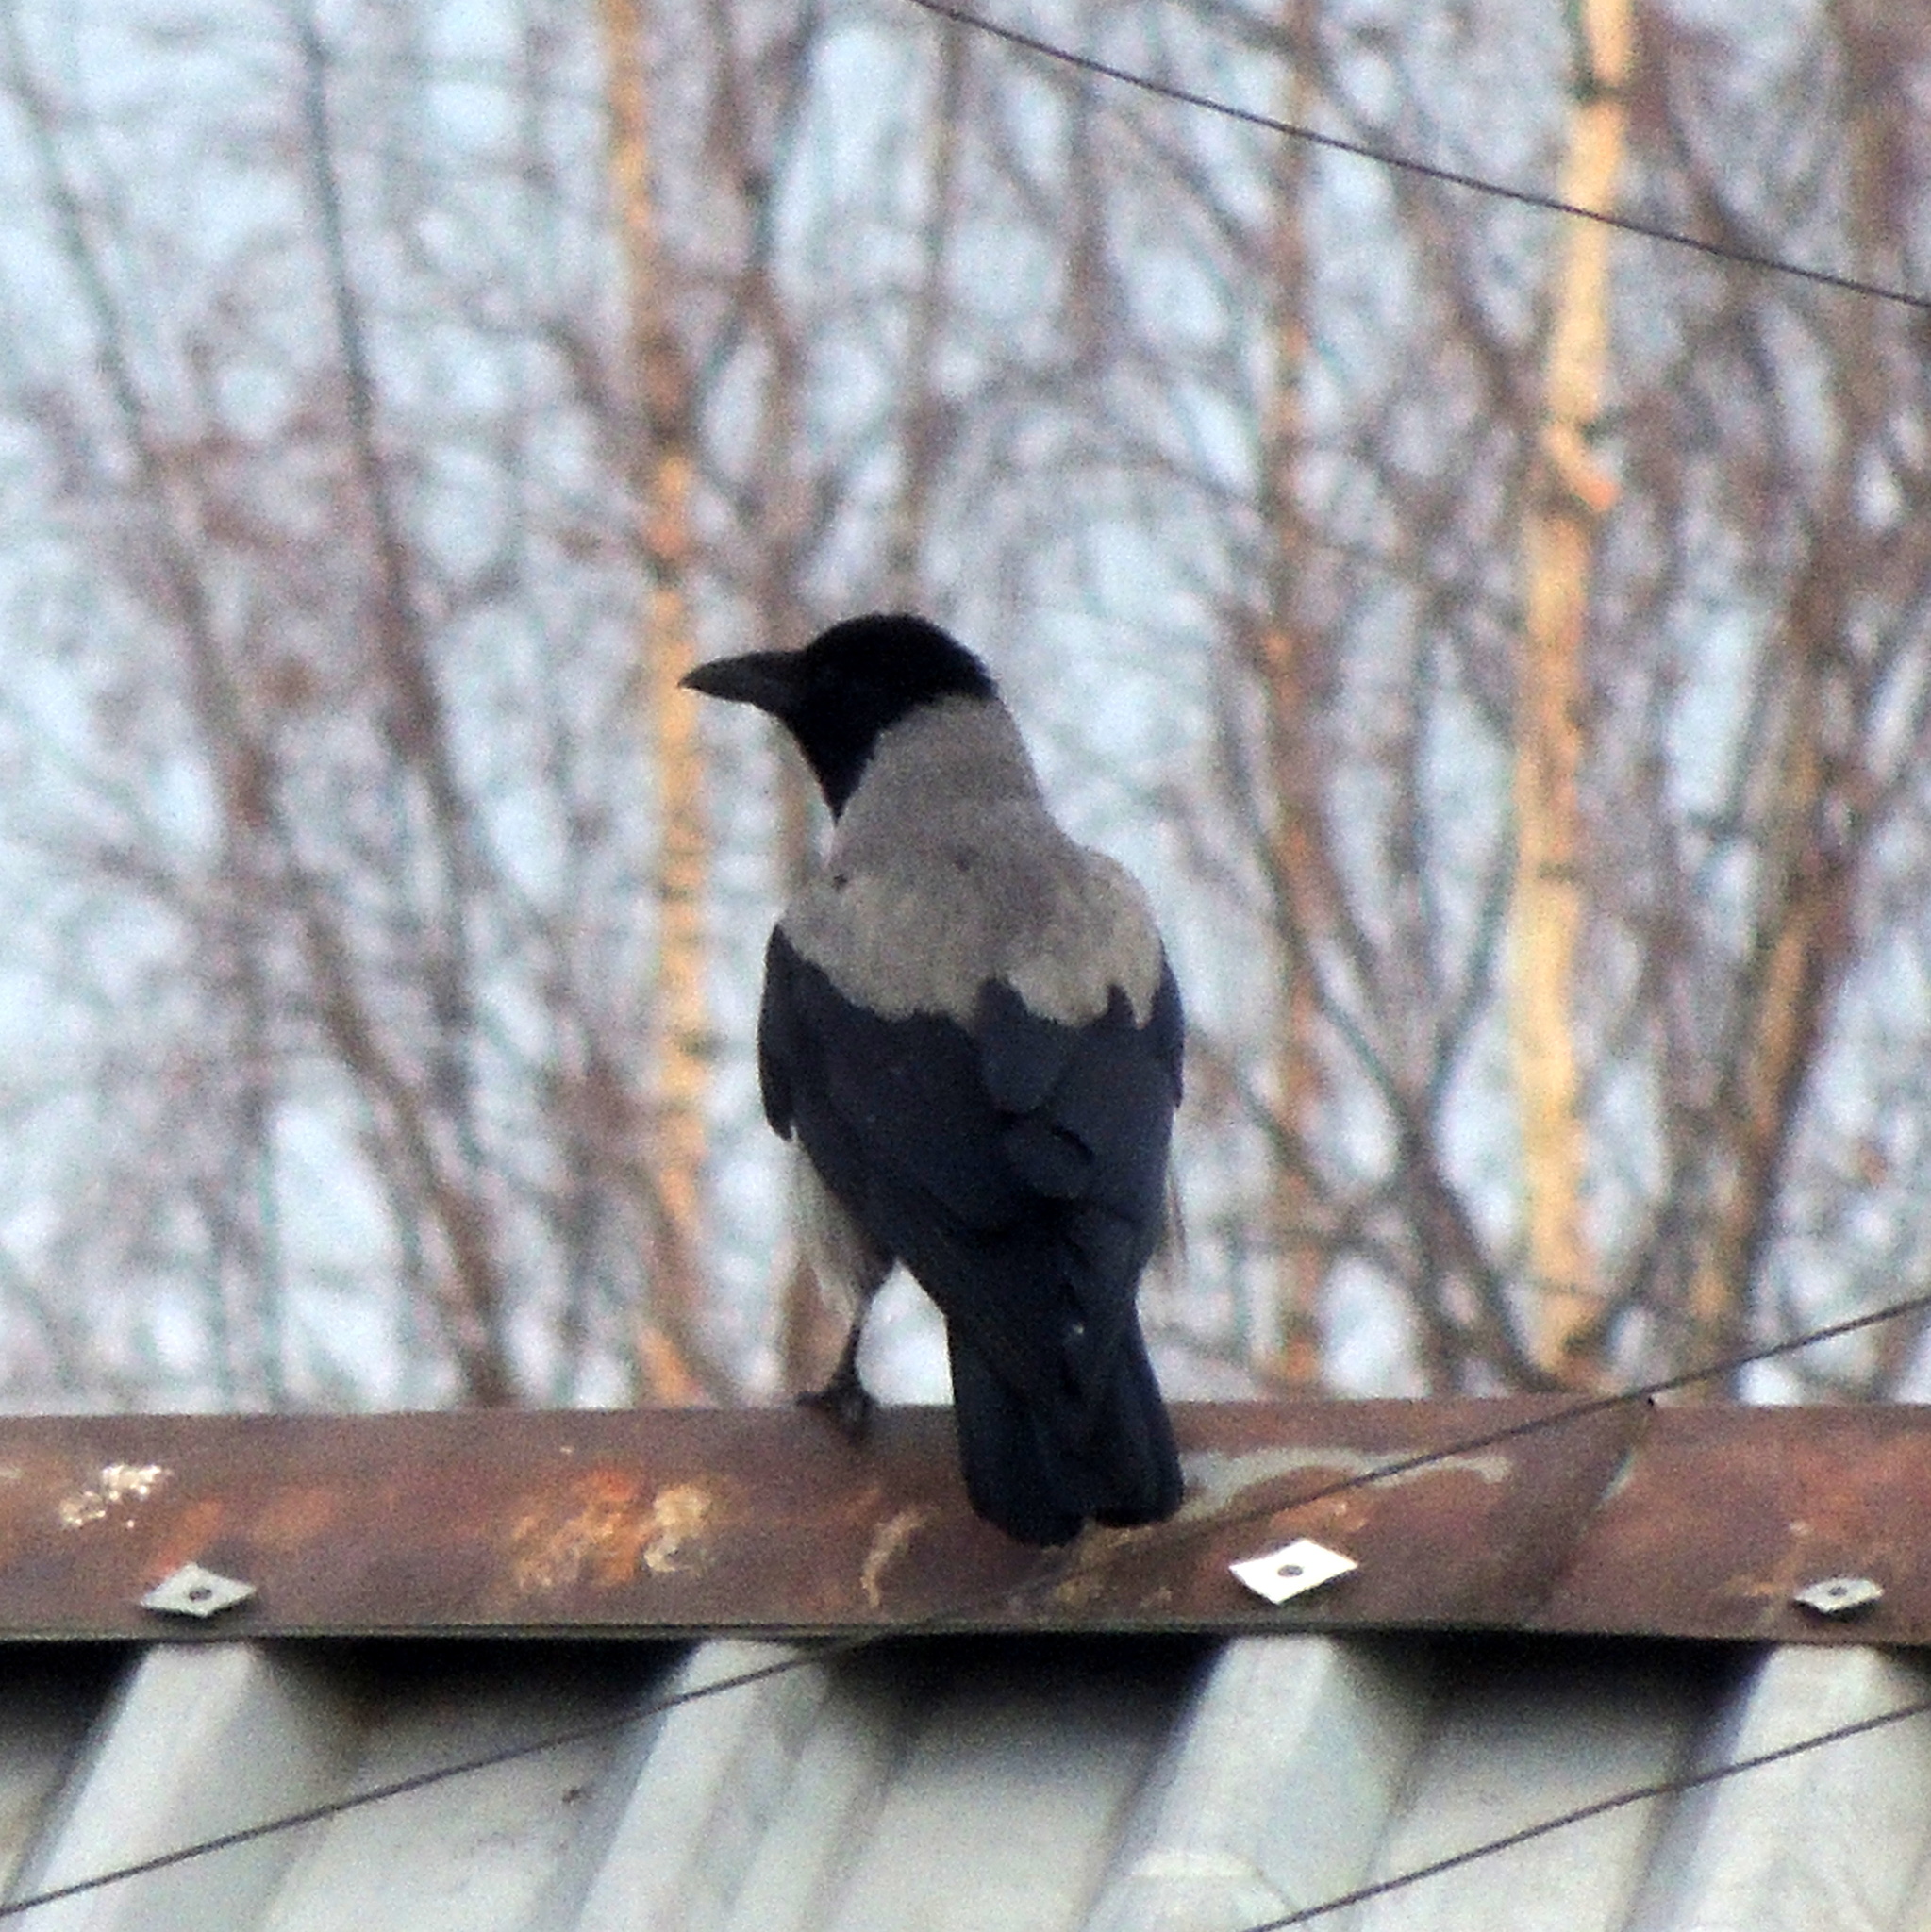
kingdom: Animalia
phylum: Chordata
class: Aves
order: Passeriformes
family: Corvidae
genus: Corvus
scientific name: Corvus cornix
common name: Hooded crow
